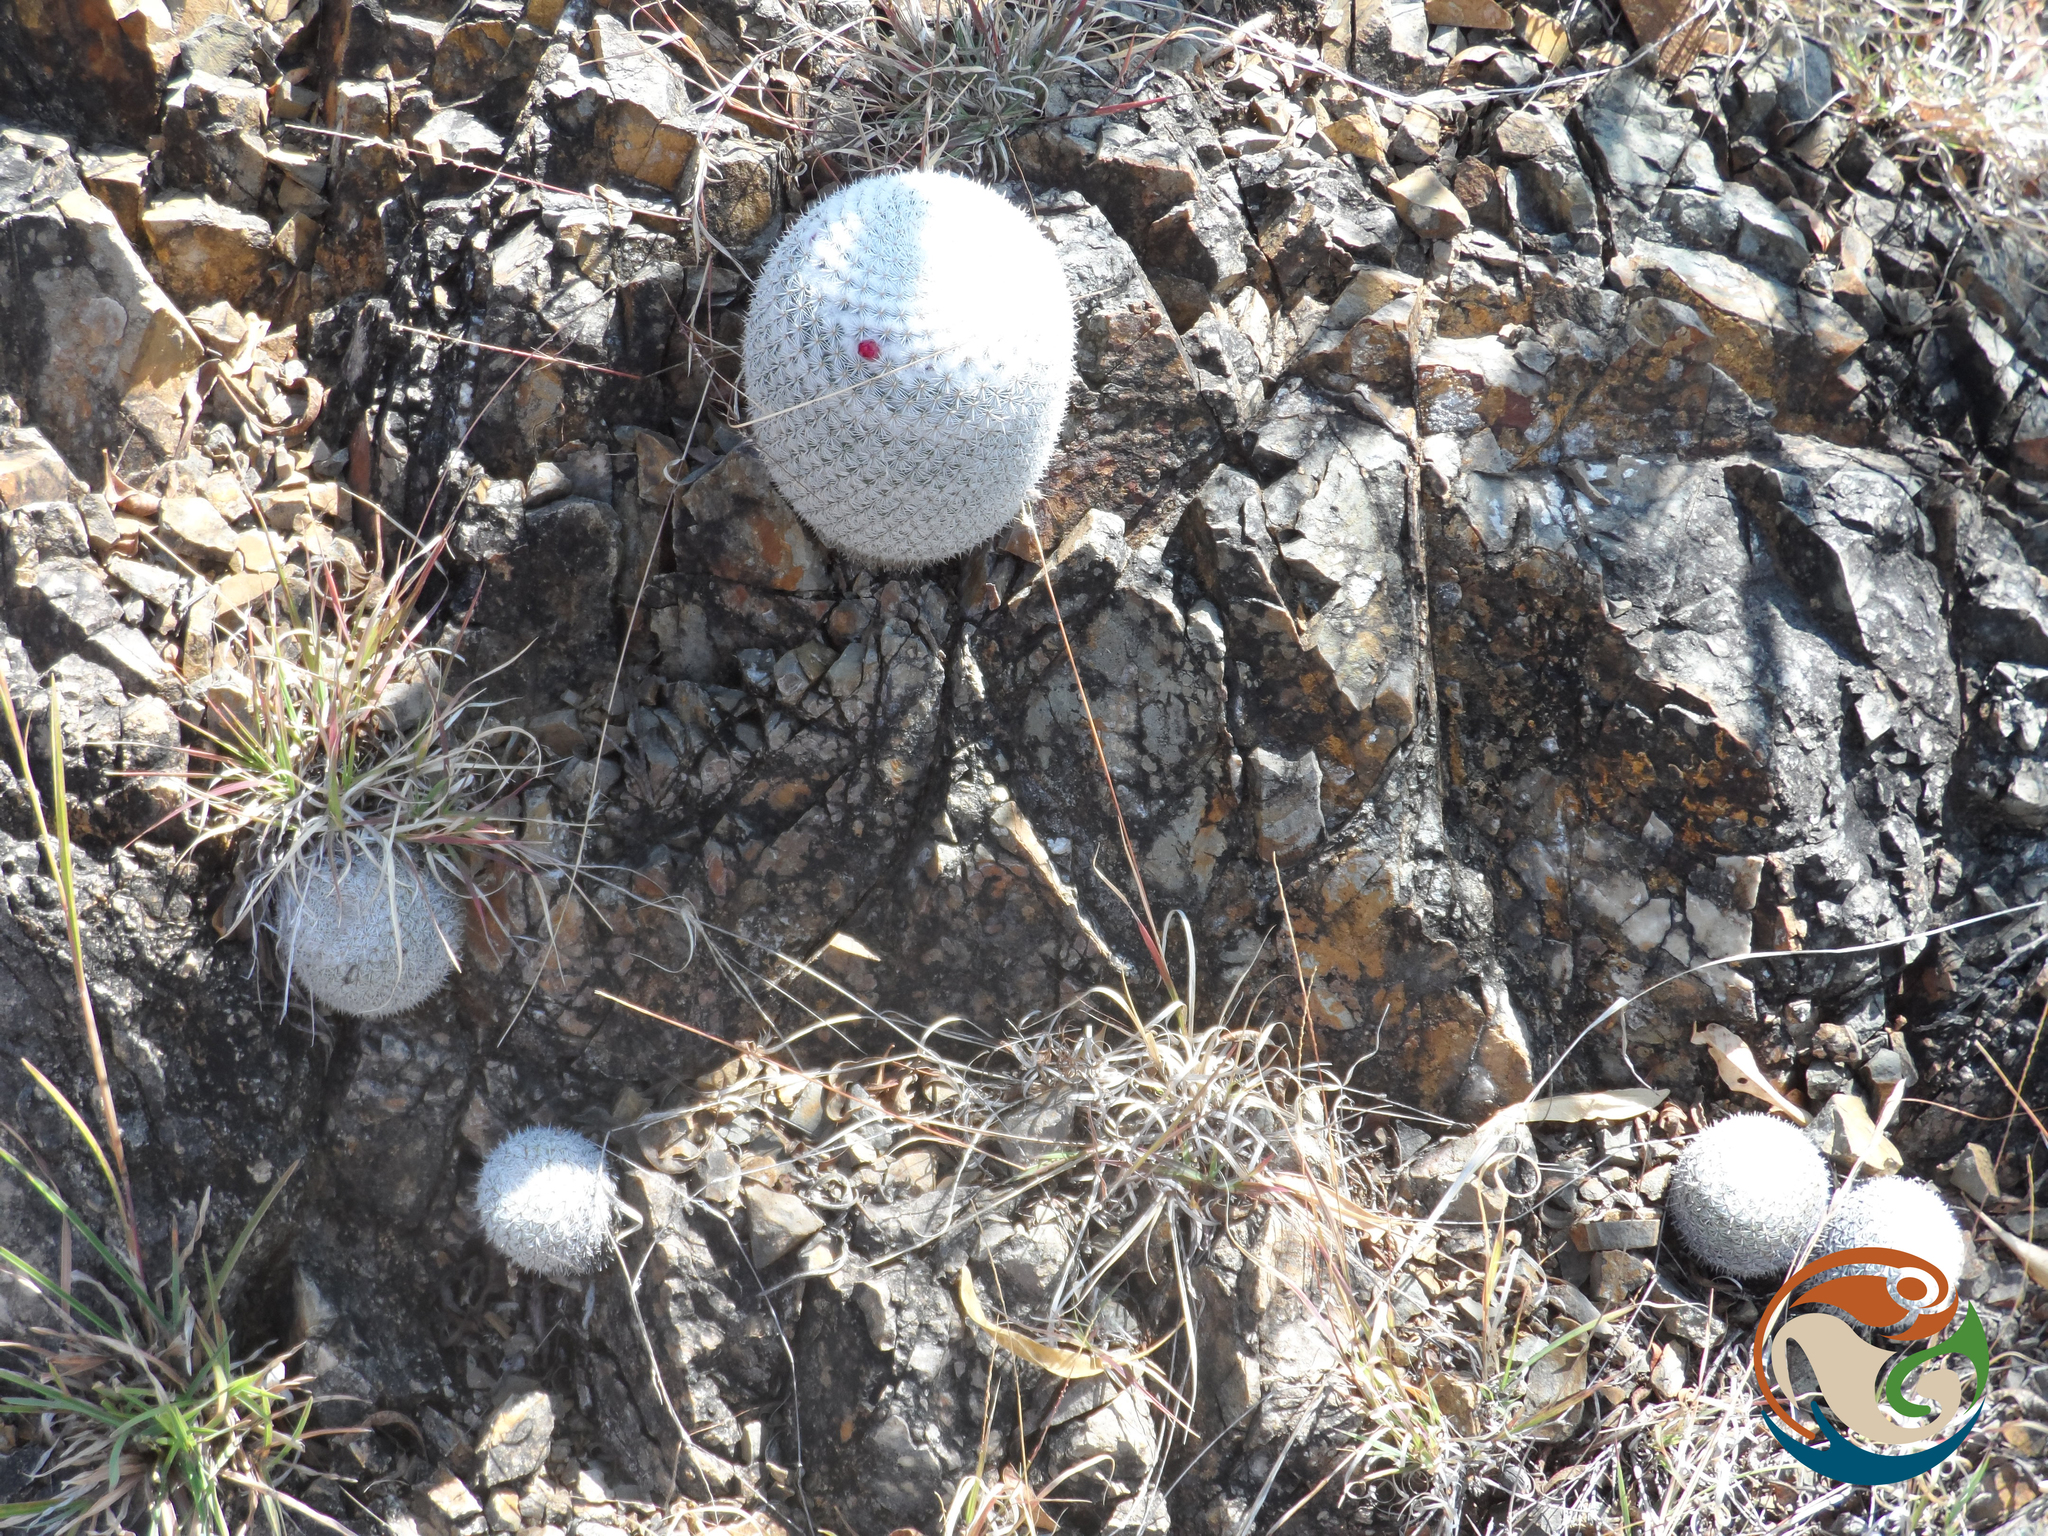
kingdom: Plantae
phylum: Tracheophyta
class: Magnoliopsida
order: Caryophyllales
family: Cactaceae
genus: Mammillaria
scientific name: Mammillaria albilanata
